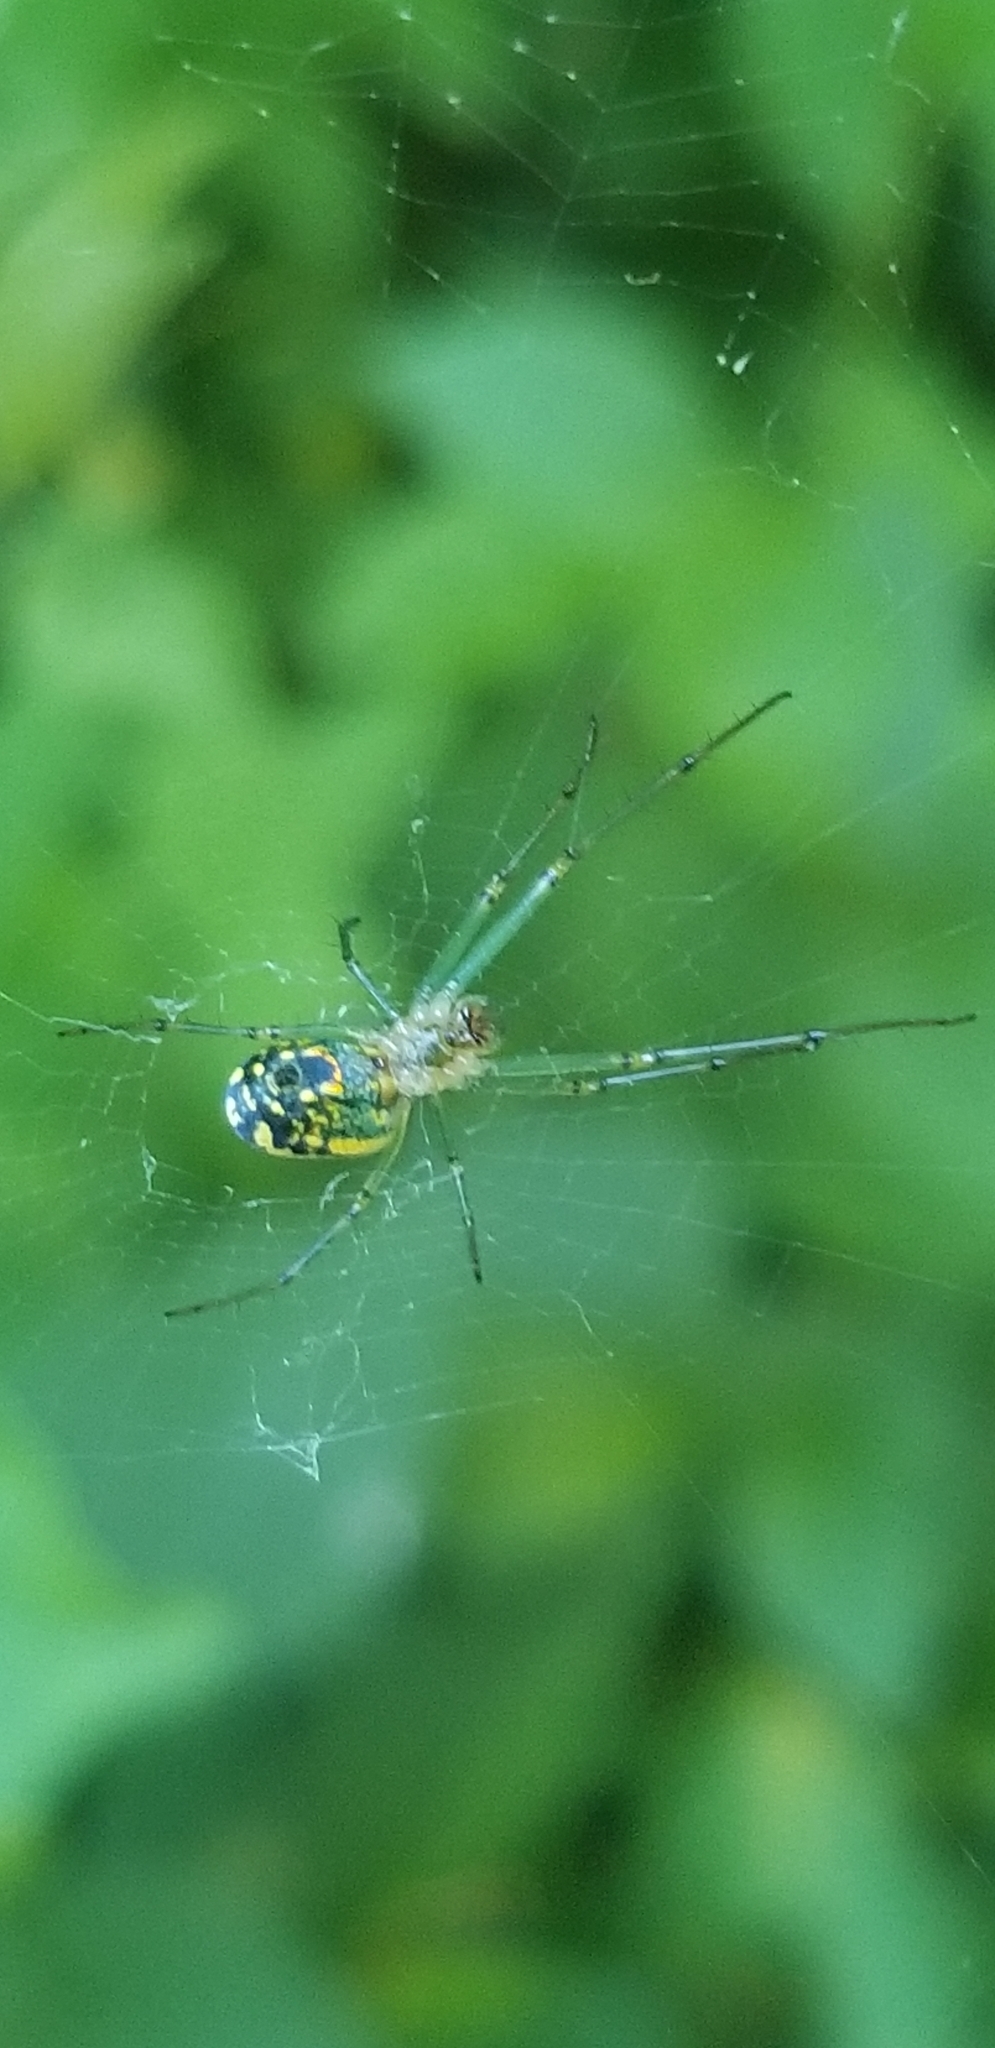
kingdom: Animalia
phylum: Arthropoda
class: Arachnida
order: Araneae
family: Tetragnathidae
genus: Leucauge
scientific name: Leucauge venusta
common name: Longjawed orb weavers
